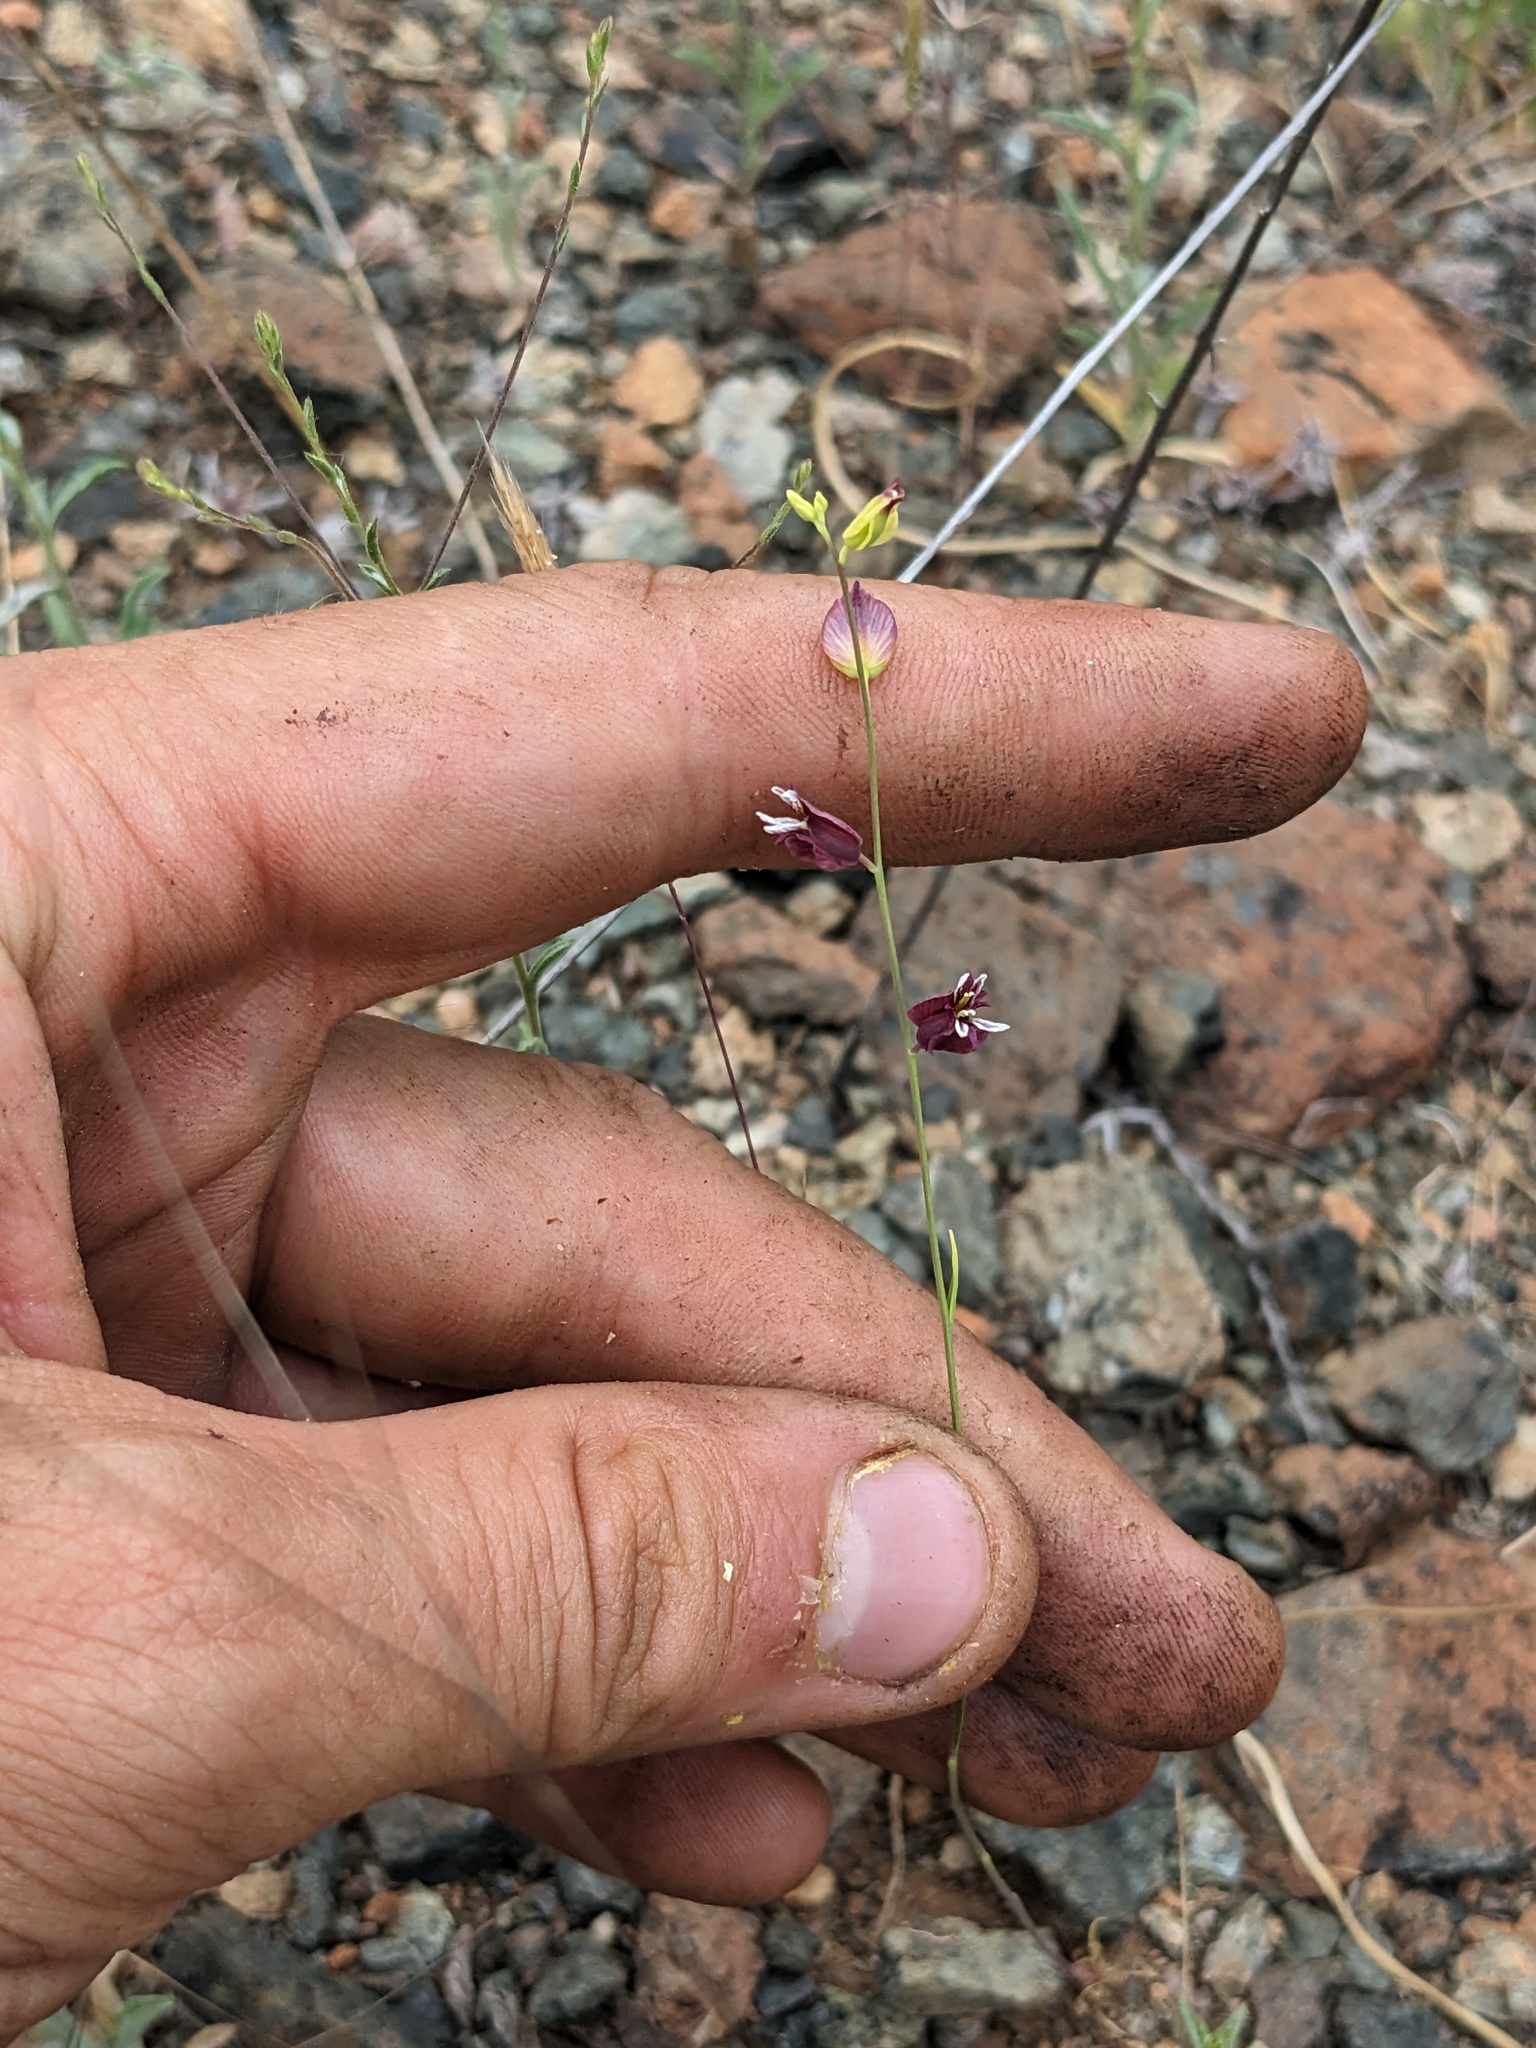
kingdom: Plantae
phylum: Tracheophyta
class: Magnoliopsida
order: Brassicales
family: Brassicaceae
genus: Streptanthus
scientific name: Streptanthus polygaloides
